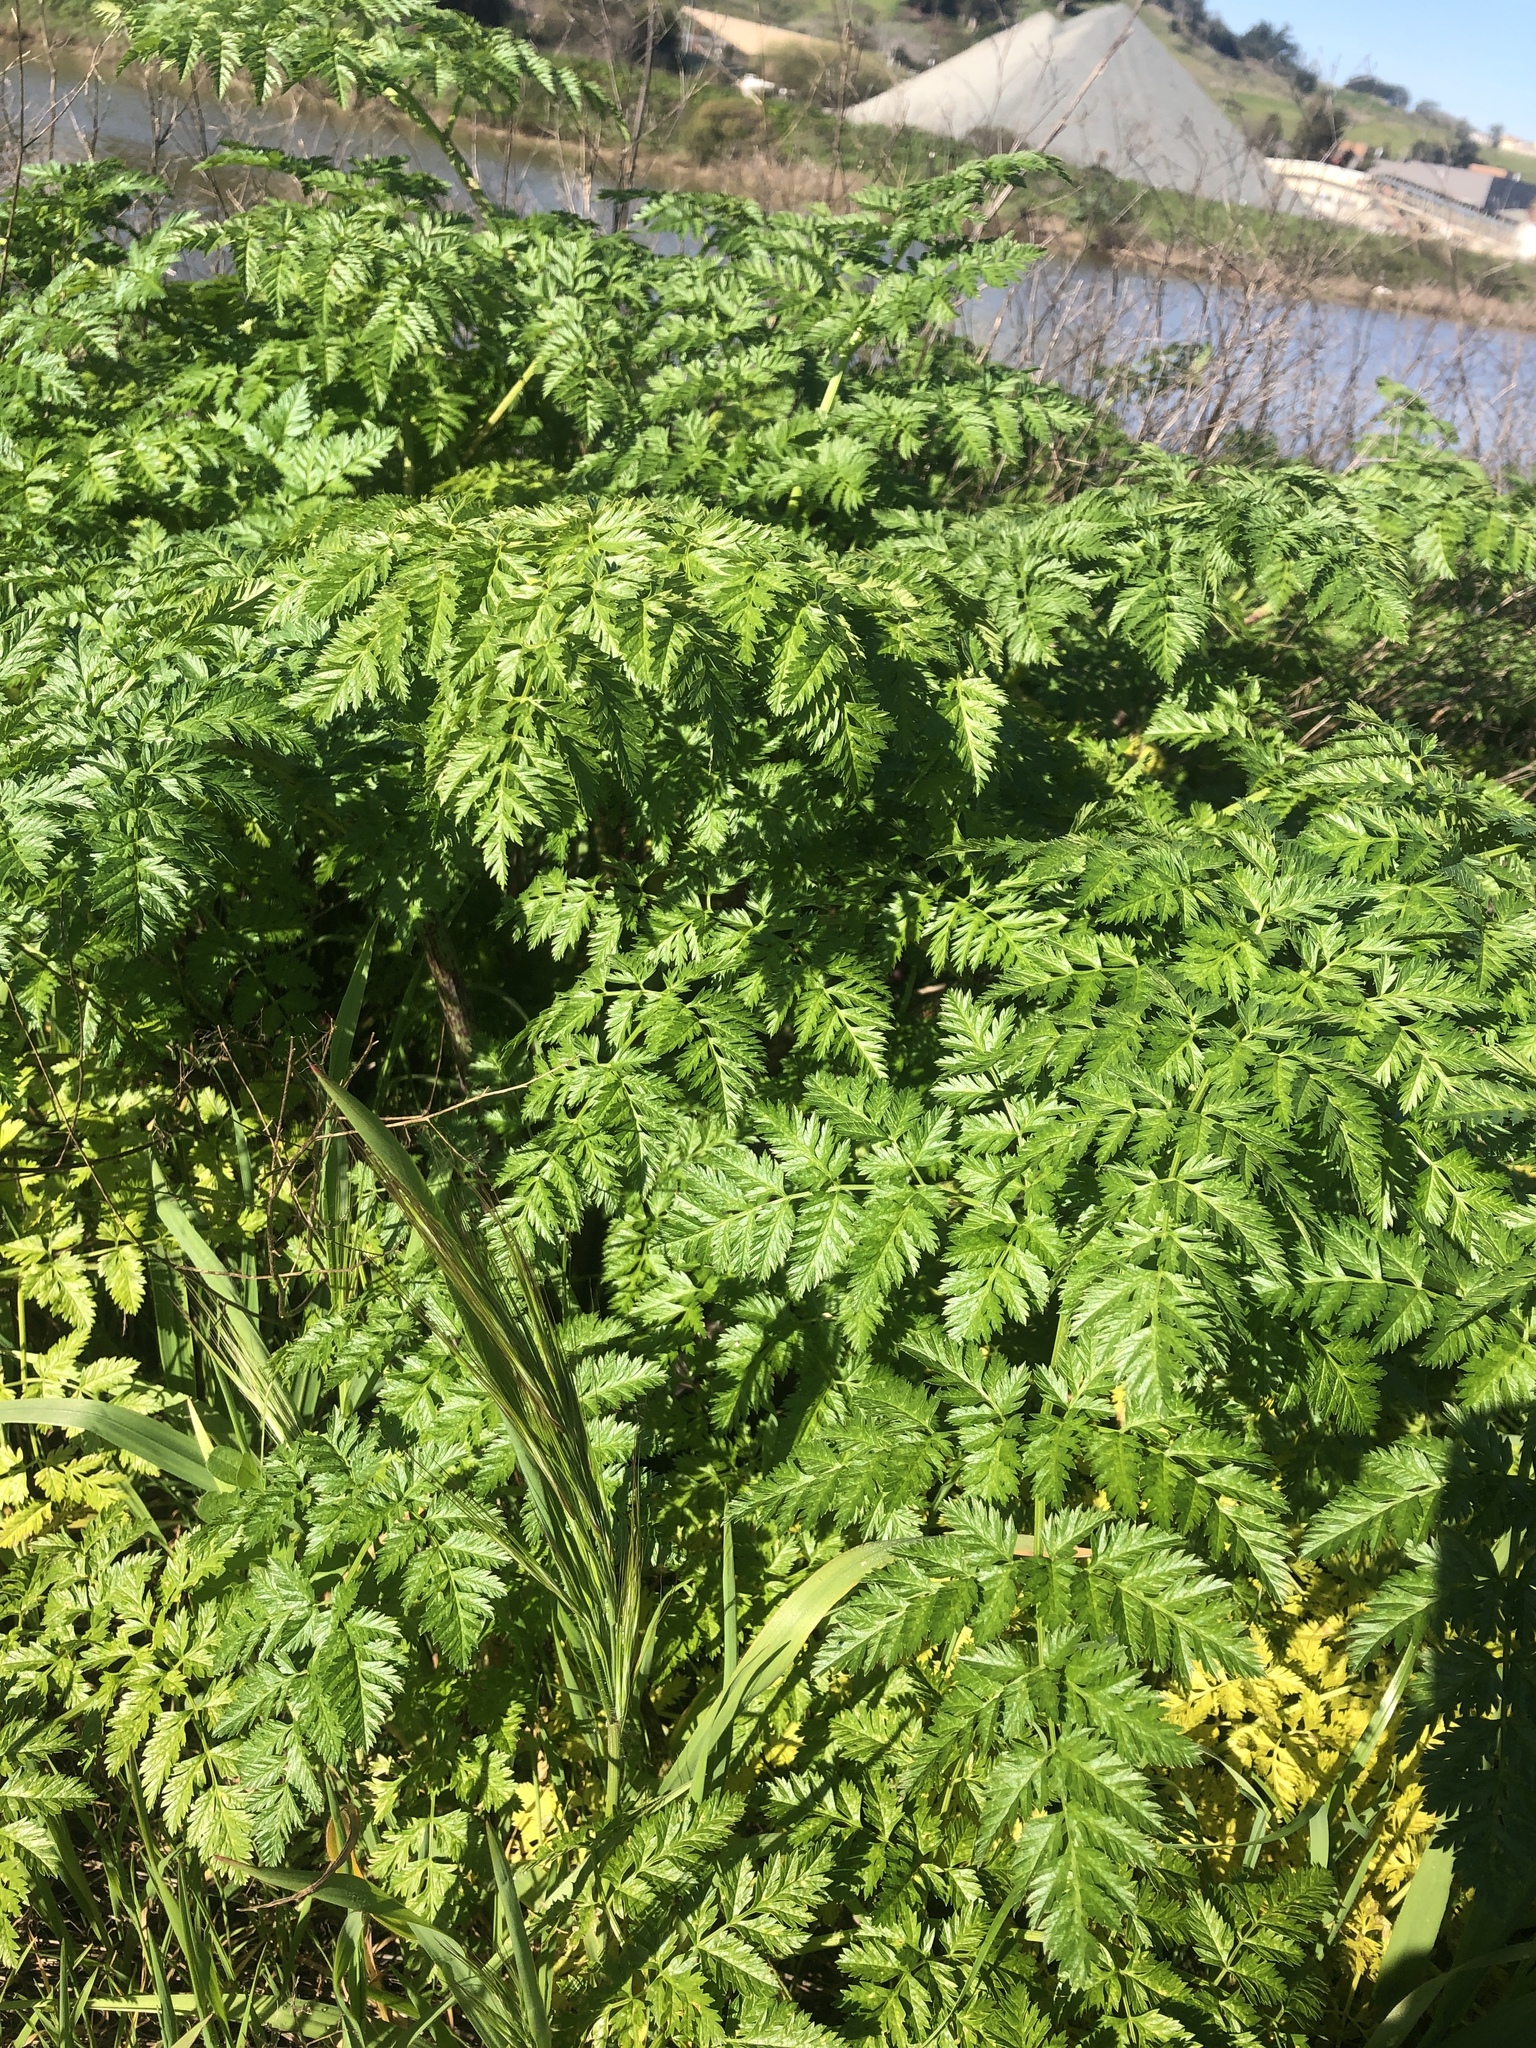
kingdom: Plantae
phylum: Tracheophyta
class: Magnoliopsida
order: Apiales
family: Apiaceae
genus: Conium
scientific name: Conium maculatum
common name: Hemlock
